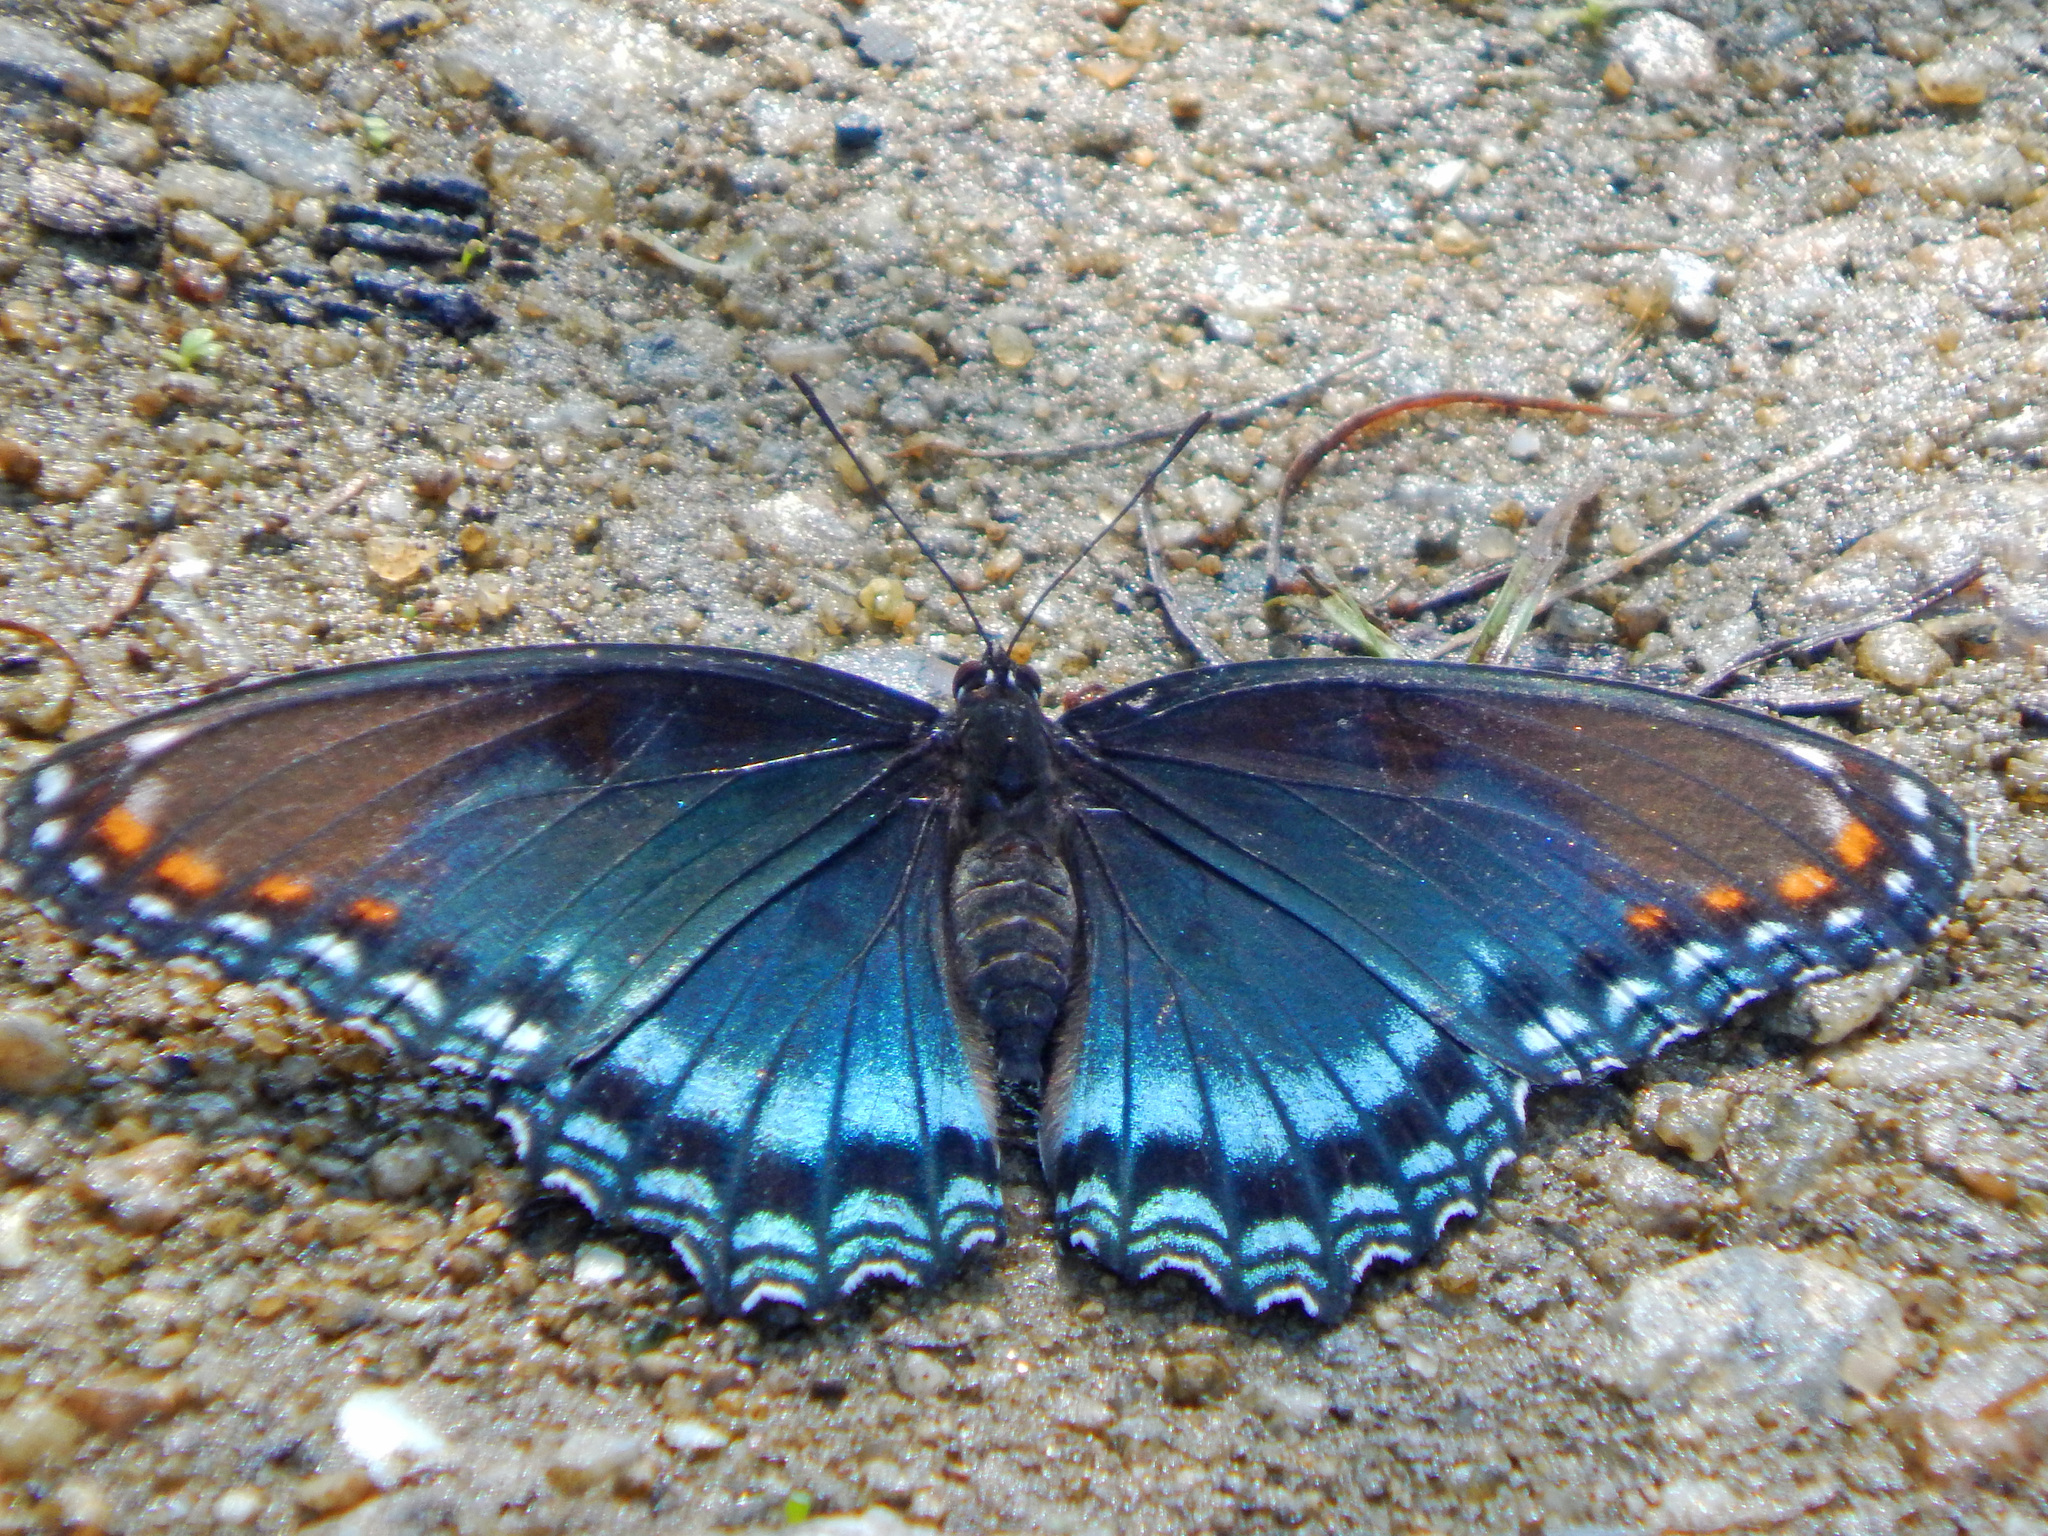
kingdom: Animalia
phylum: Arthropoda
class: Insecta
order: Lepidoptera
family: Nymphalidae
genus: Limenitis
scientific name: Limenitis astyanax
